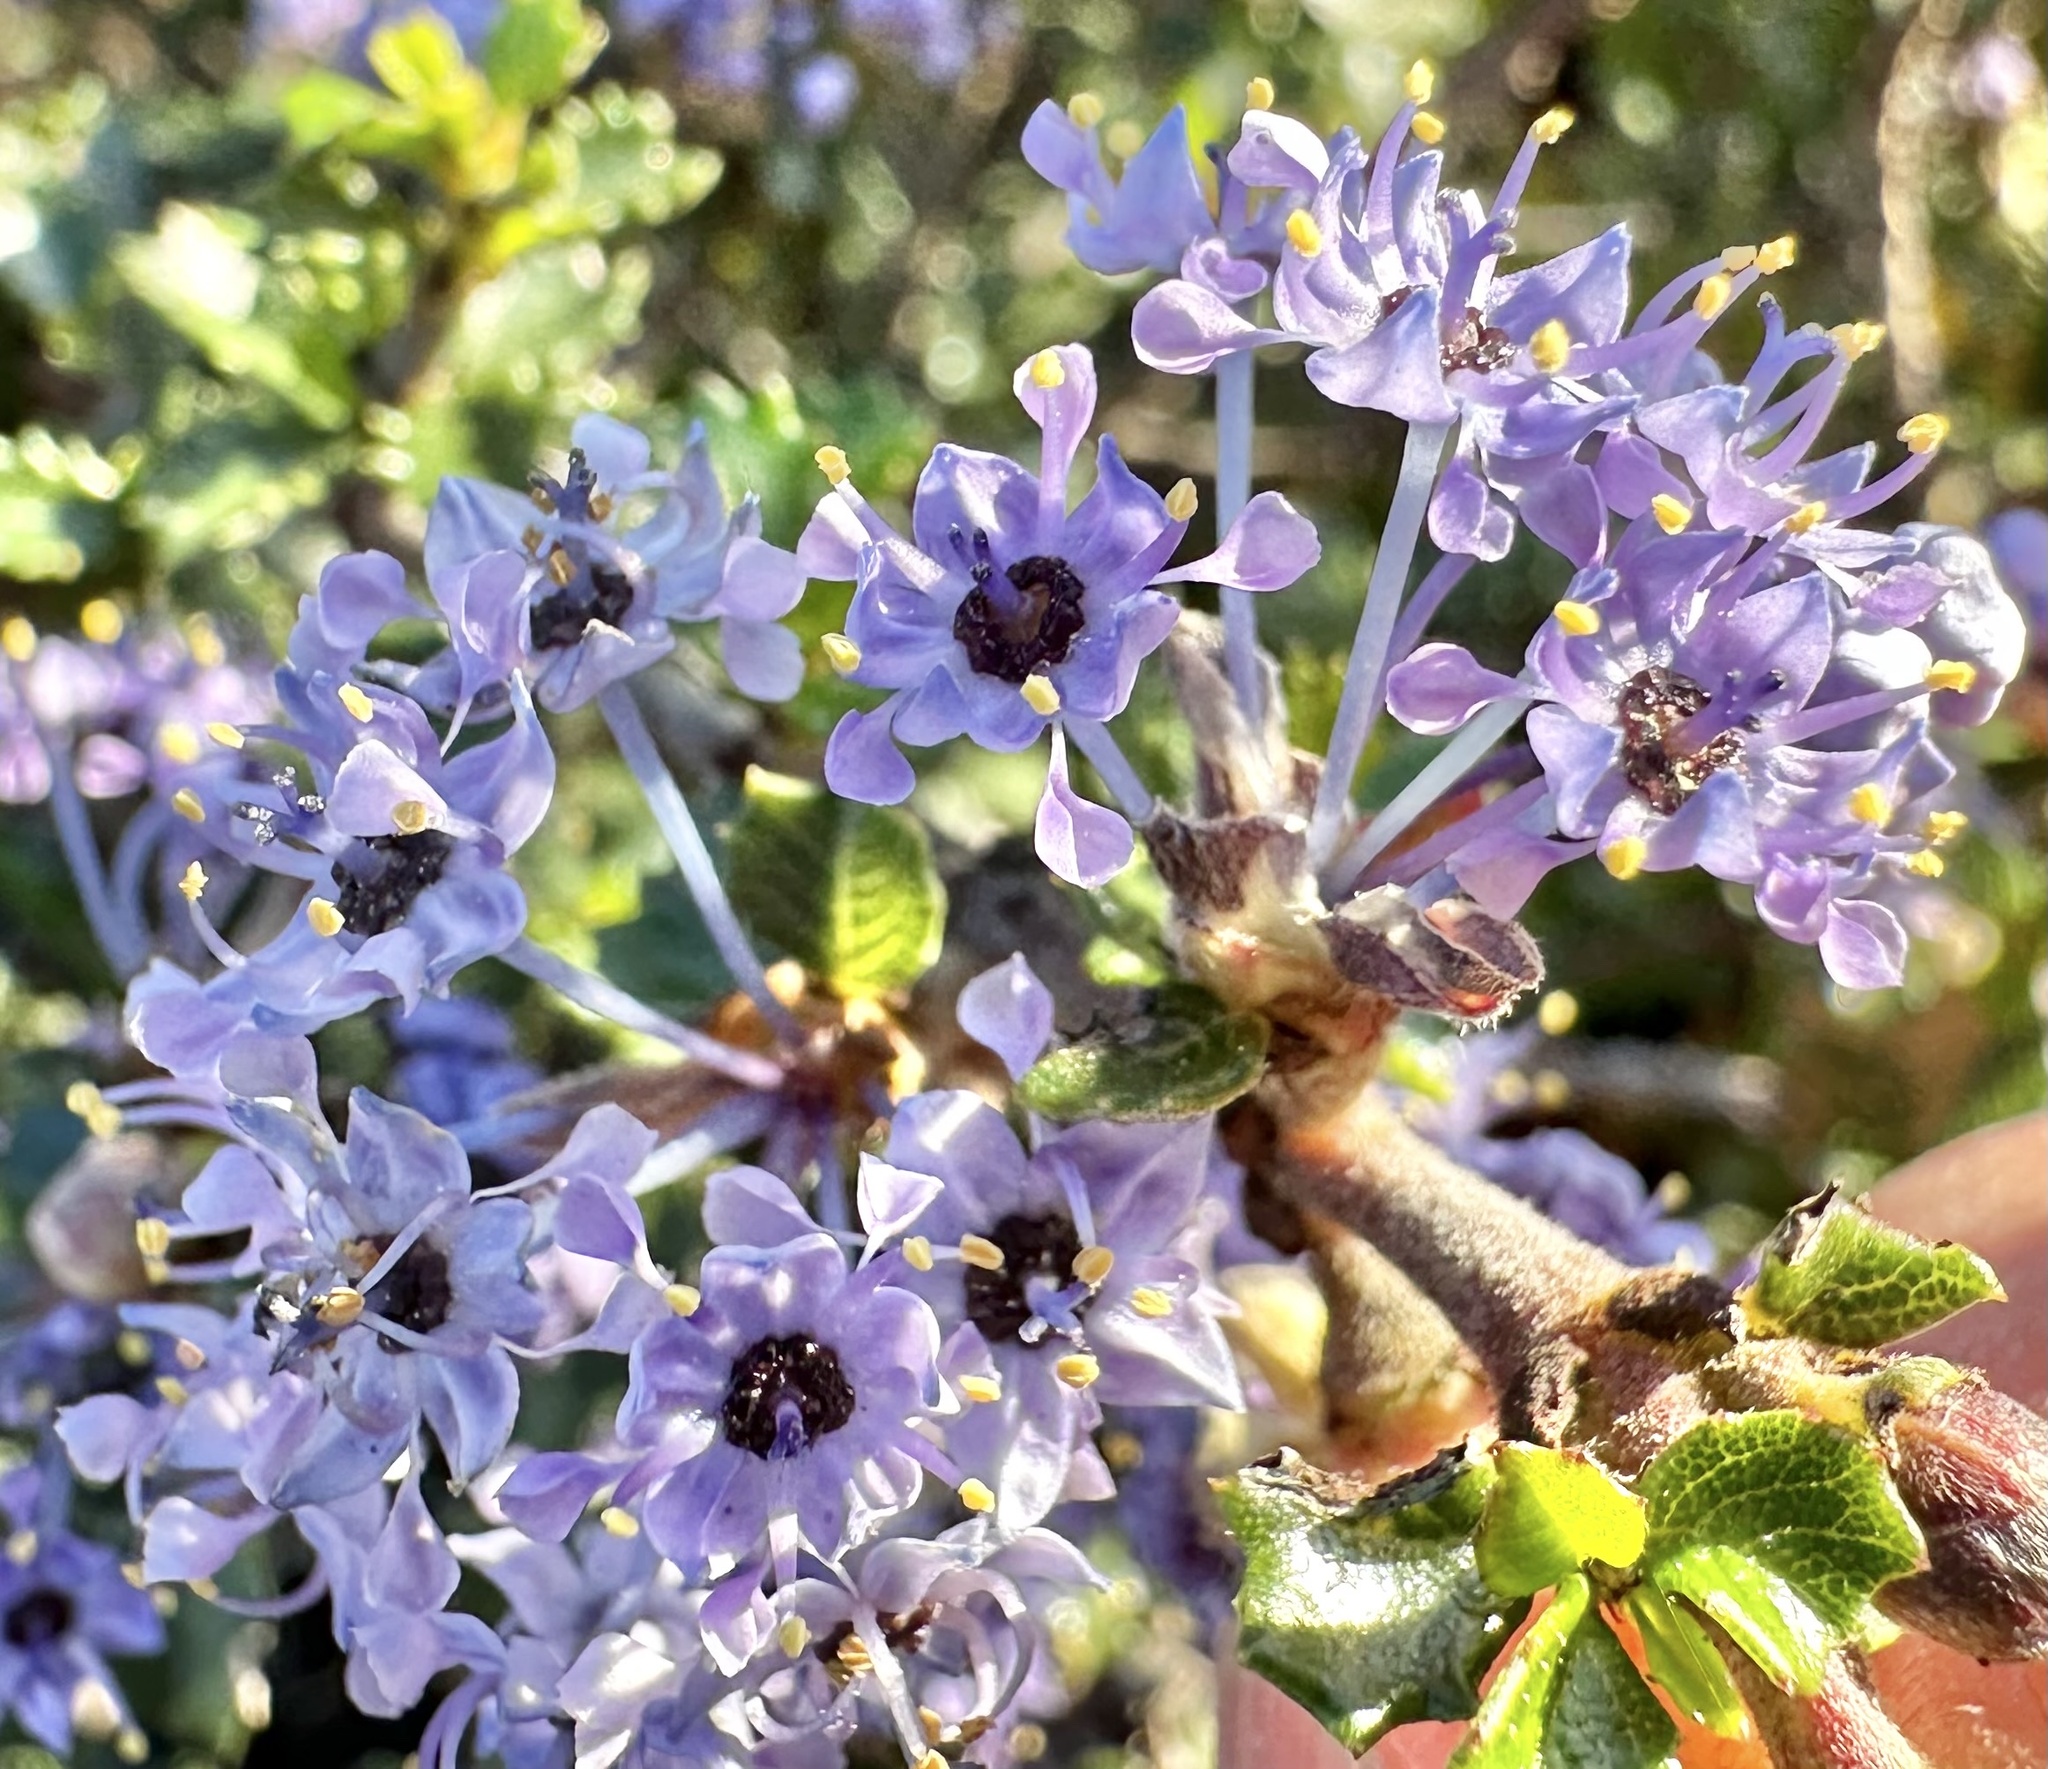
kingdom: Plantae
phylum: Tracheophyta
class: Magnoliopsida
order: Rosales
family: Rhamnaceae
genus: Ceanothus
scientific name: Ceanothus cuneatus
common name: Cuneate ceanothus
